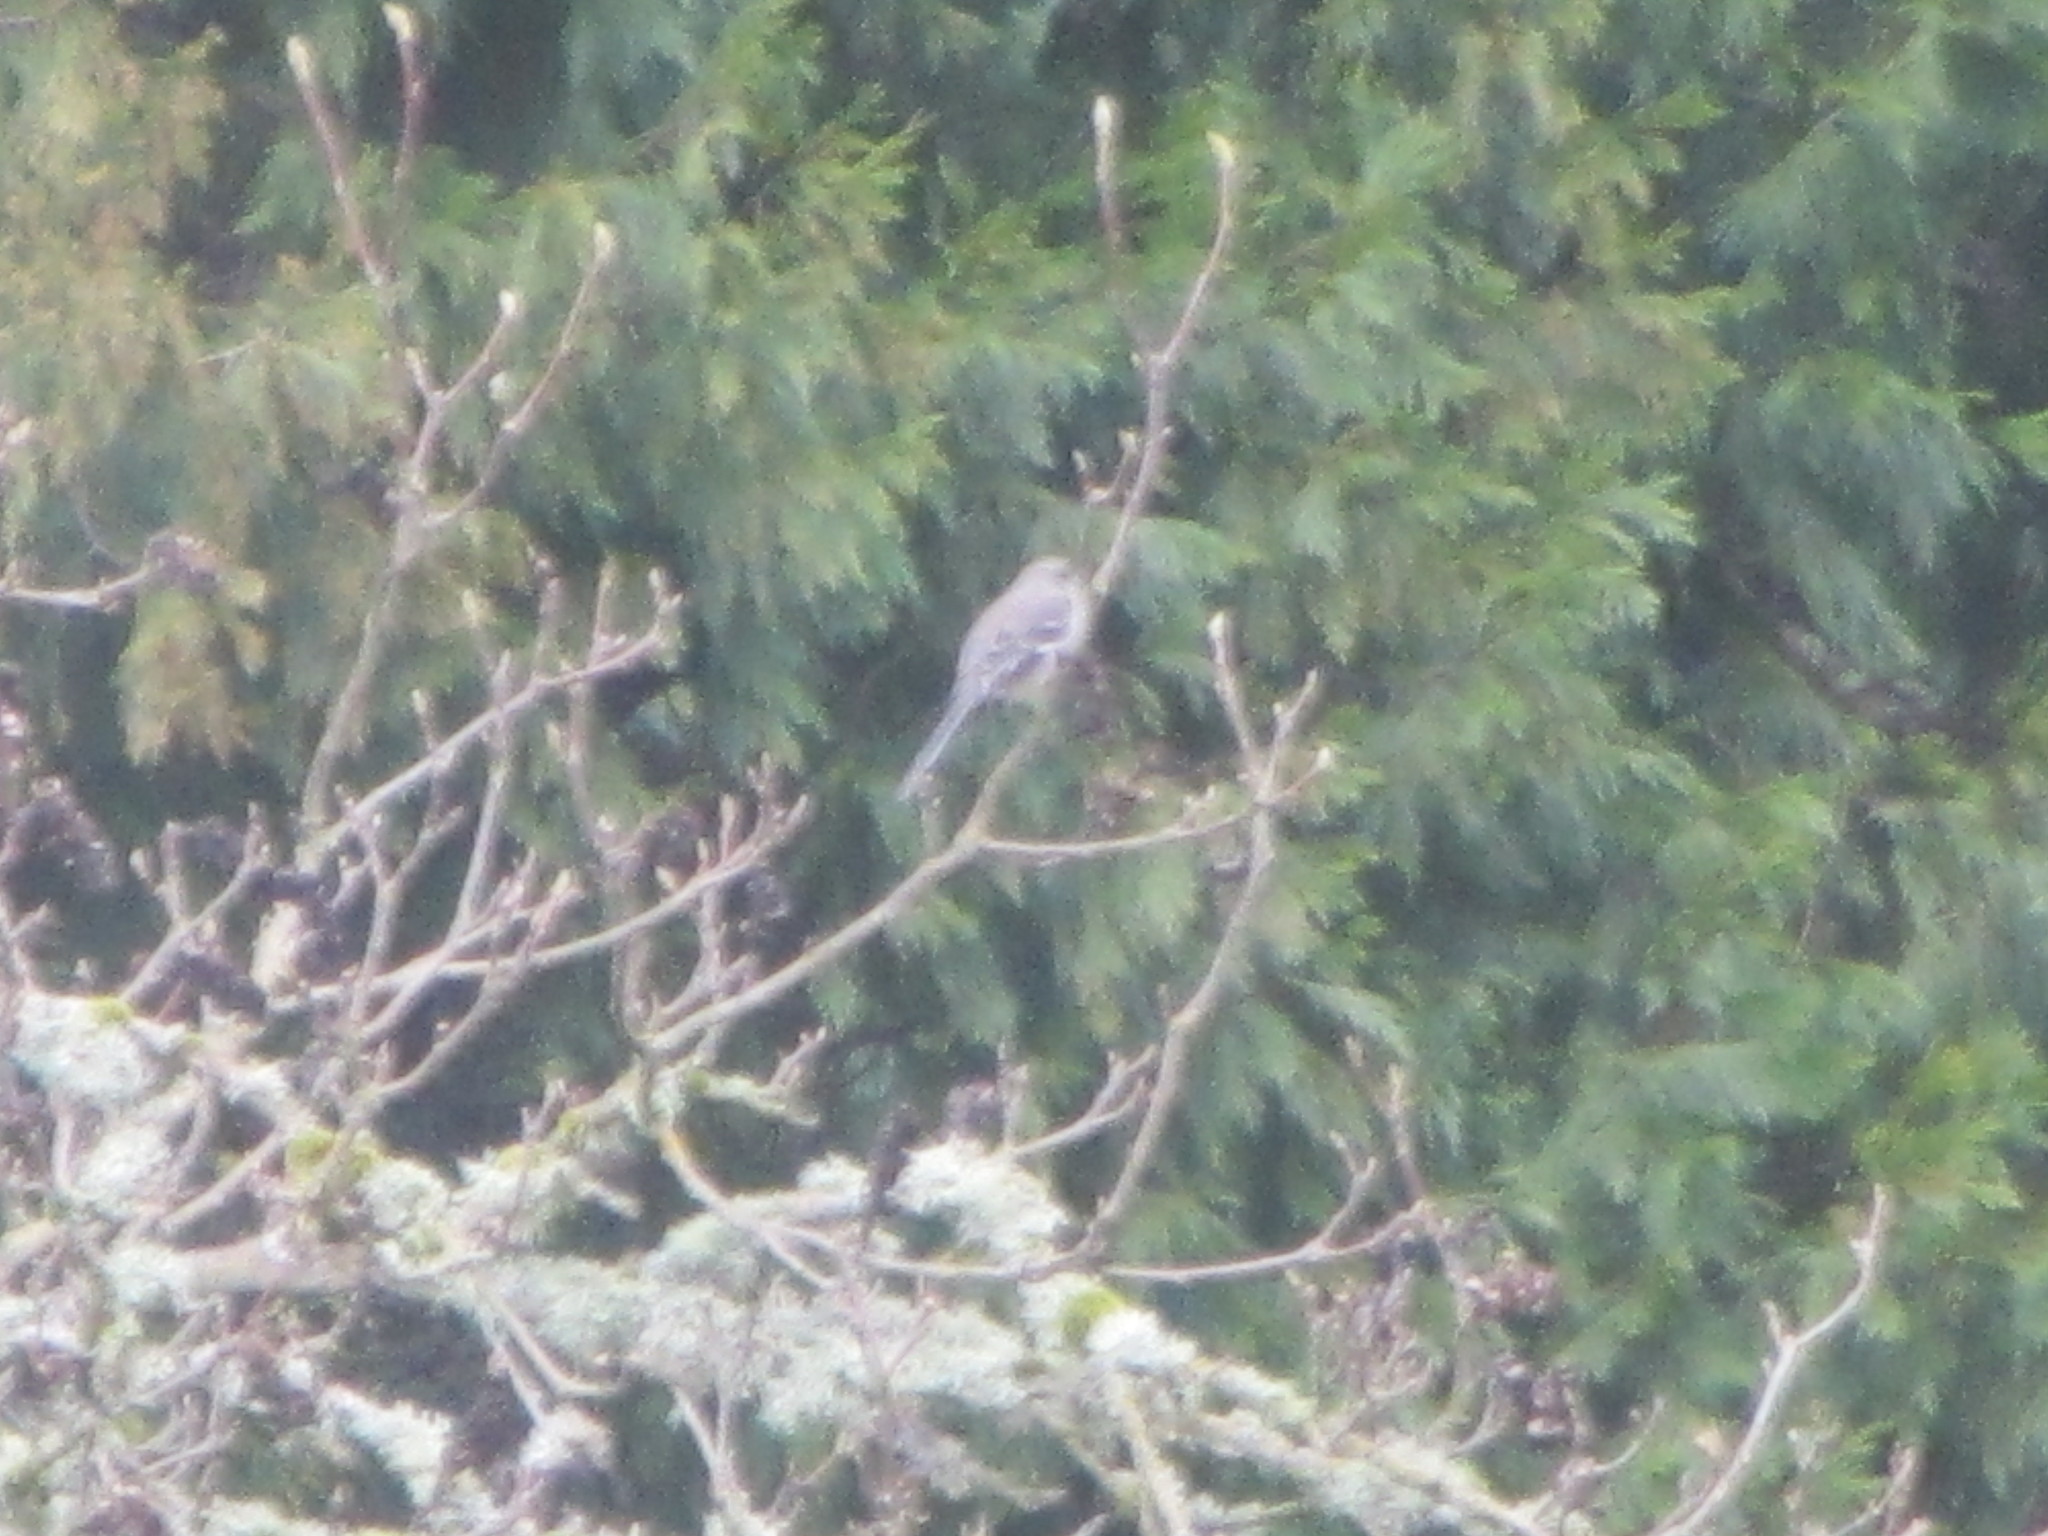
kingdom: Animalia
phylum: Chordata
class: Aves
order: Passeriformes
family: Mimidae
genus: Mimus
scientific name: Mimus polyglottos
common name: Northern mockingbird
